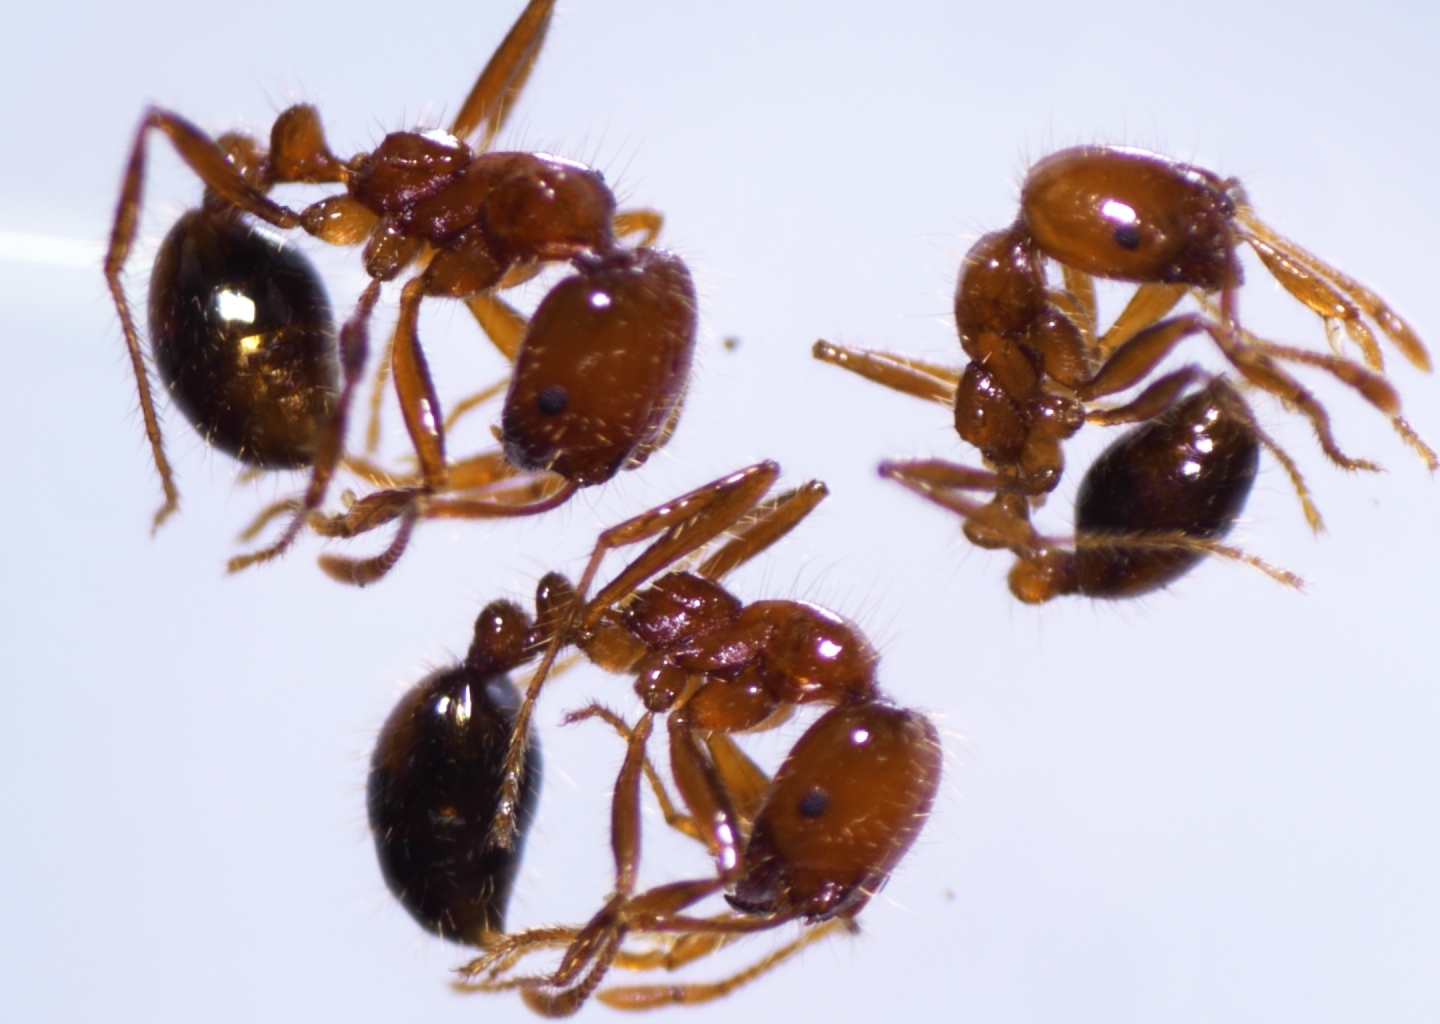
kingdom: Animalia
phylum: Arthropoda
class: Insecta
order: Hymenoptera
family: Formicidae
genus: Solenopsis
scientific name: Solenopsis geminata
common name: Tropical fire ant
